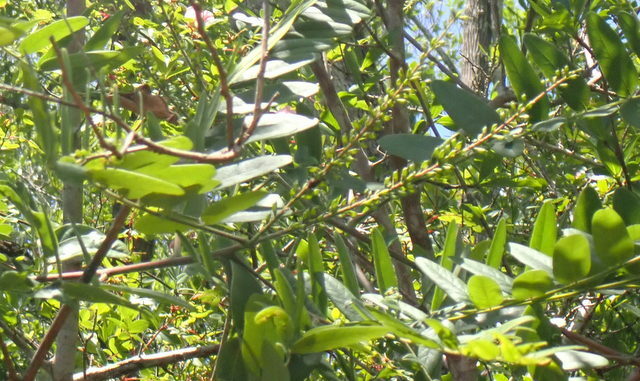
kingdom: Plantae
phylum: Tracheophyta
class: Magnoliopsida
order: Fabales
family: Fabaceae
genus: Amorpha
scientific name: Amorpha fruticosa
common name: False indigo
